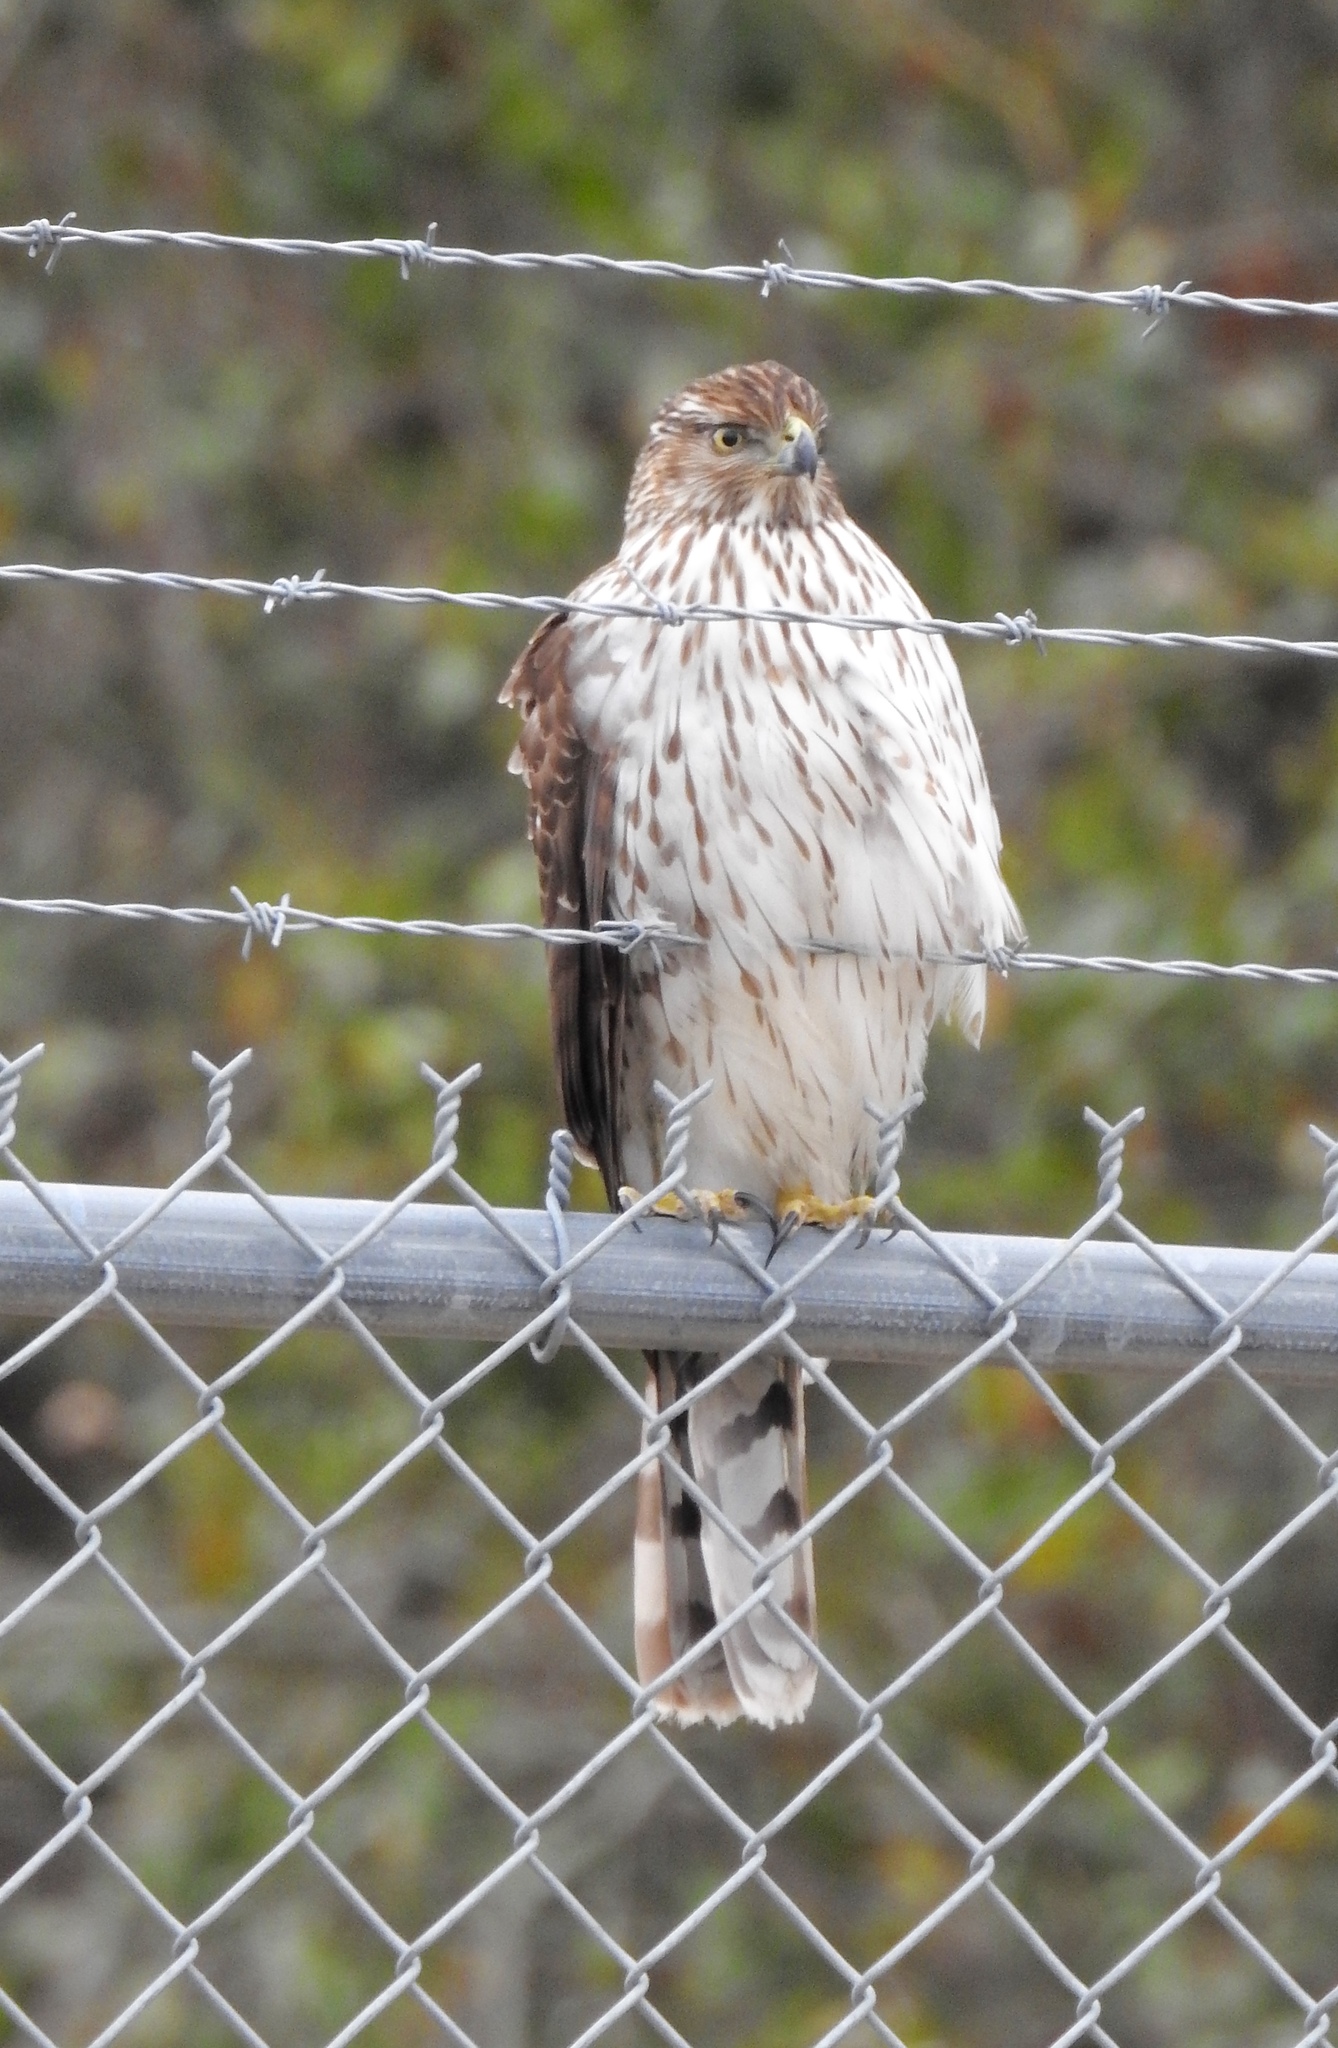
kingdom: Animalia
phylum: Chordata
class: Aves
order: Accipitriformes
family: Accipitridae
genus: Accipiter
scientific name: Accipiter cooperii
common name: Cooper's hawk
